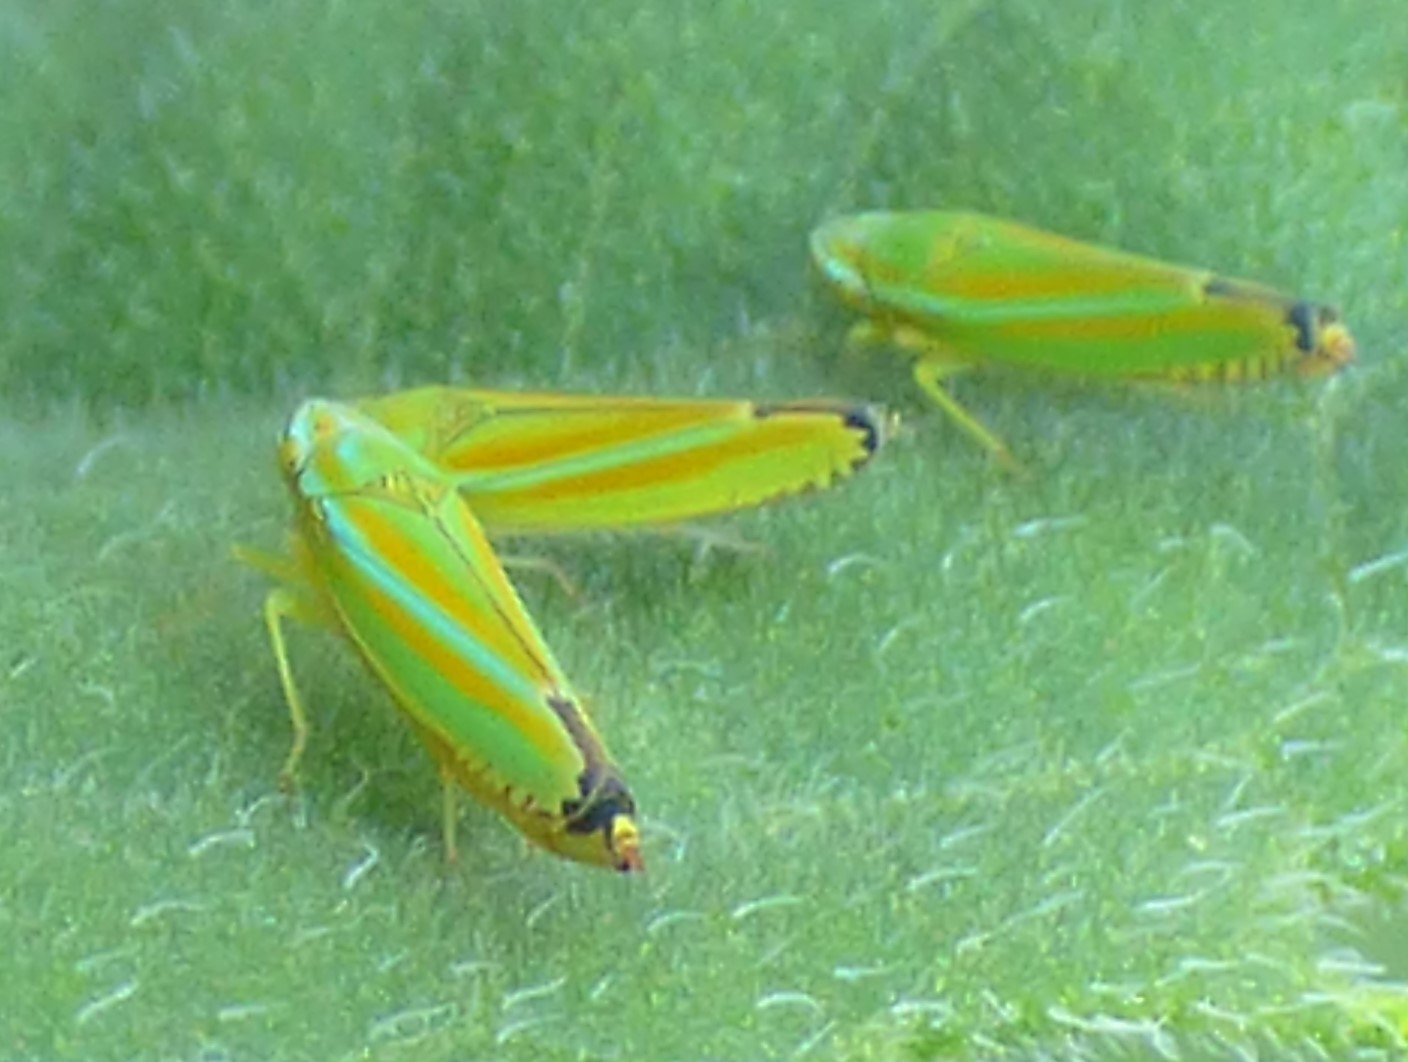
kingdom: Animalia
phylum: Arthropoda
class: Insecta
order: Hemiptera
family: Cicadellidae
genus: Graphocephala
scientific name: Graphocephala versuta
